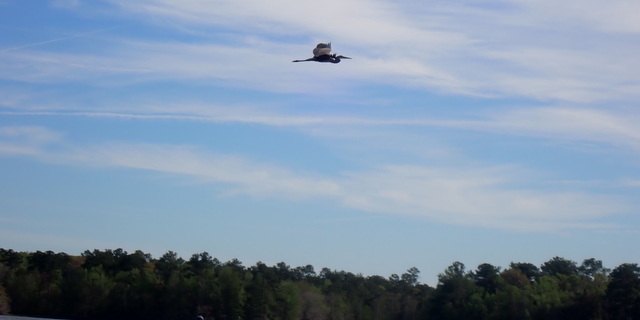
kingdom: Animalia
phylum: Chordata
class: Aves
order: Pelecaniformes
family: Ardeidae
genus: Ardea
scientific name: Ardea herodias
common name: Great blue heron
